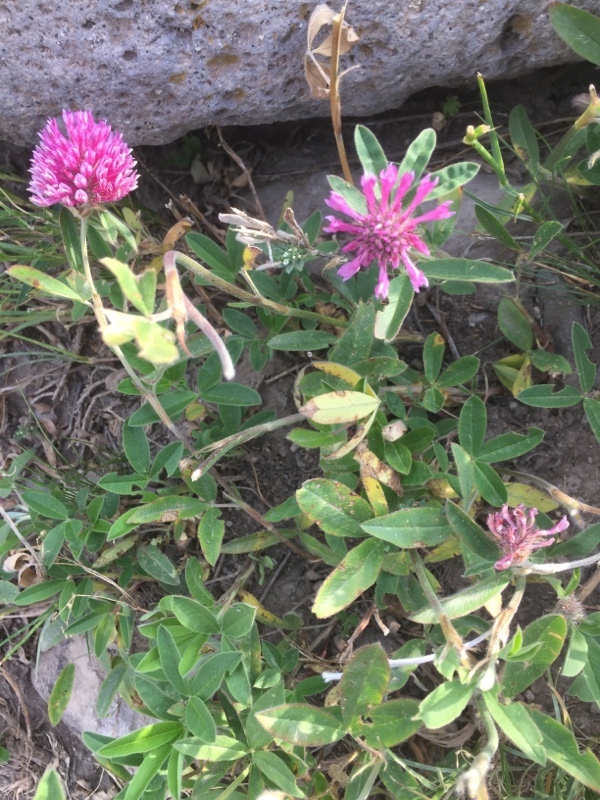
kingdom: Plantae
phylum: Tracheophyta
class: Magnoliopsida
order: Fabales
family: Fabaceae
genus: Trifolium
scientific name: Trifolium medium
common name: Zigzag clover
